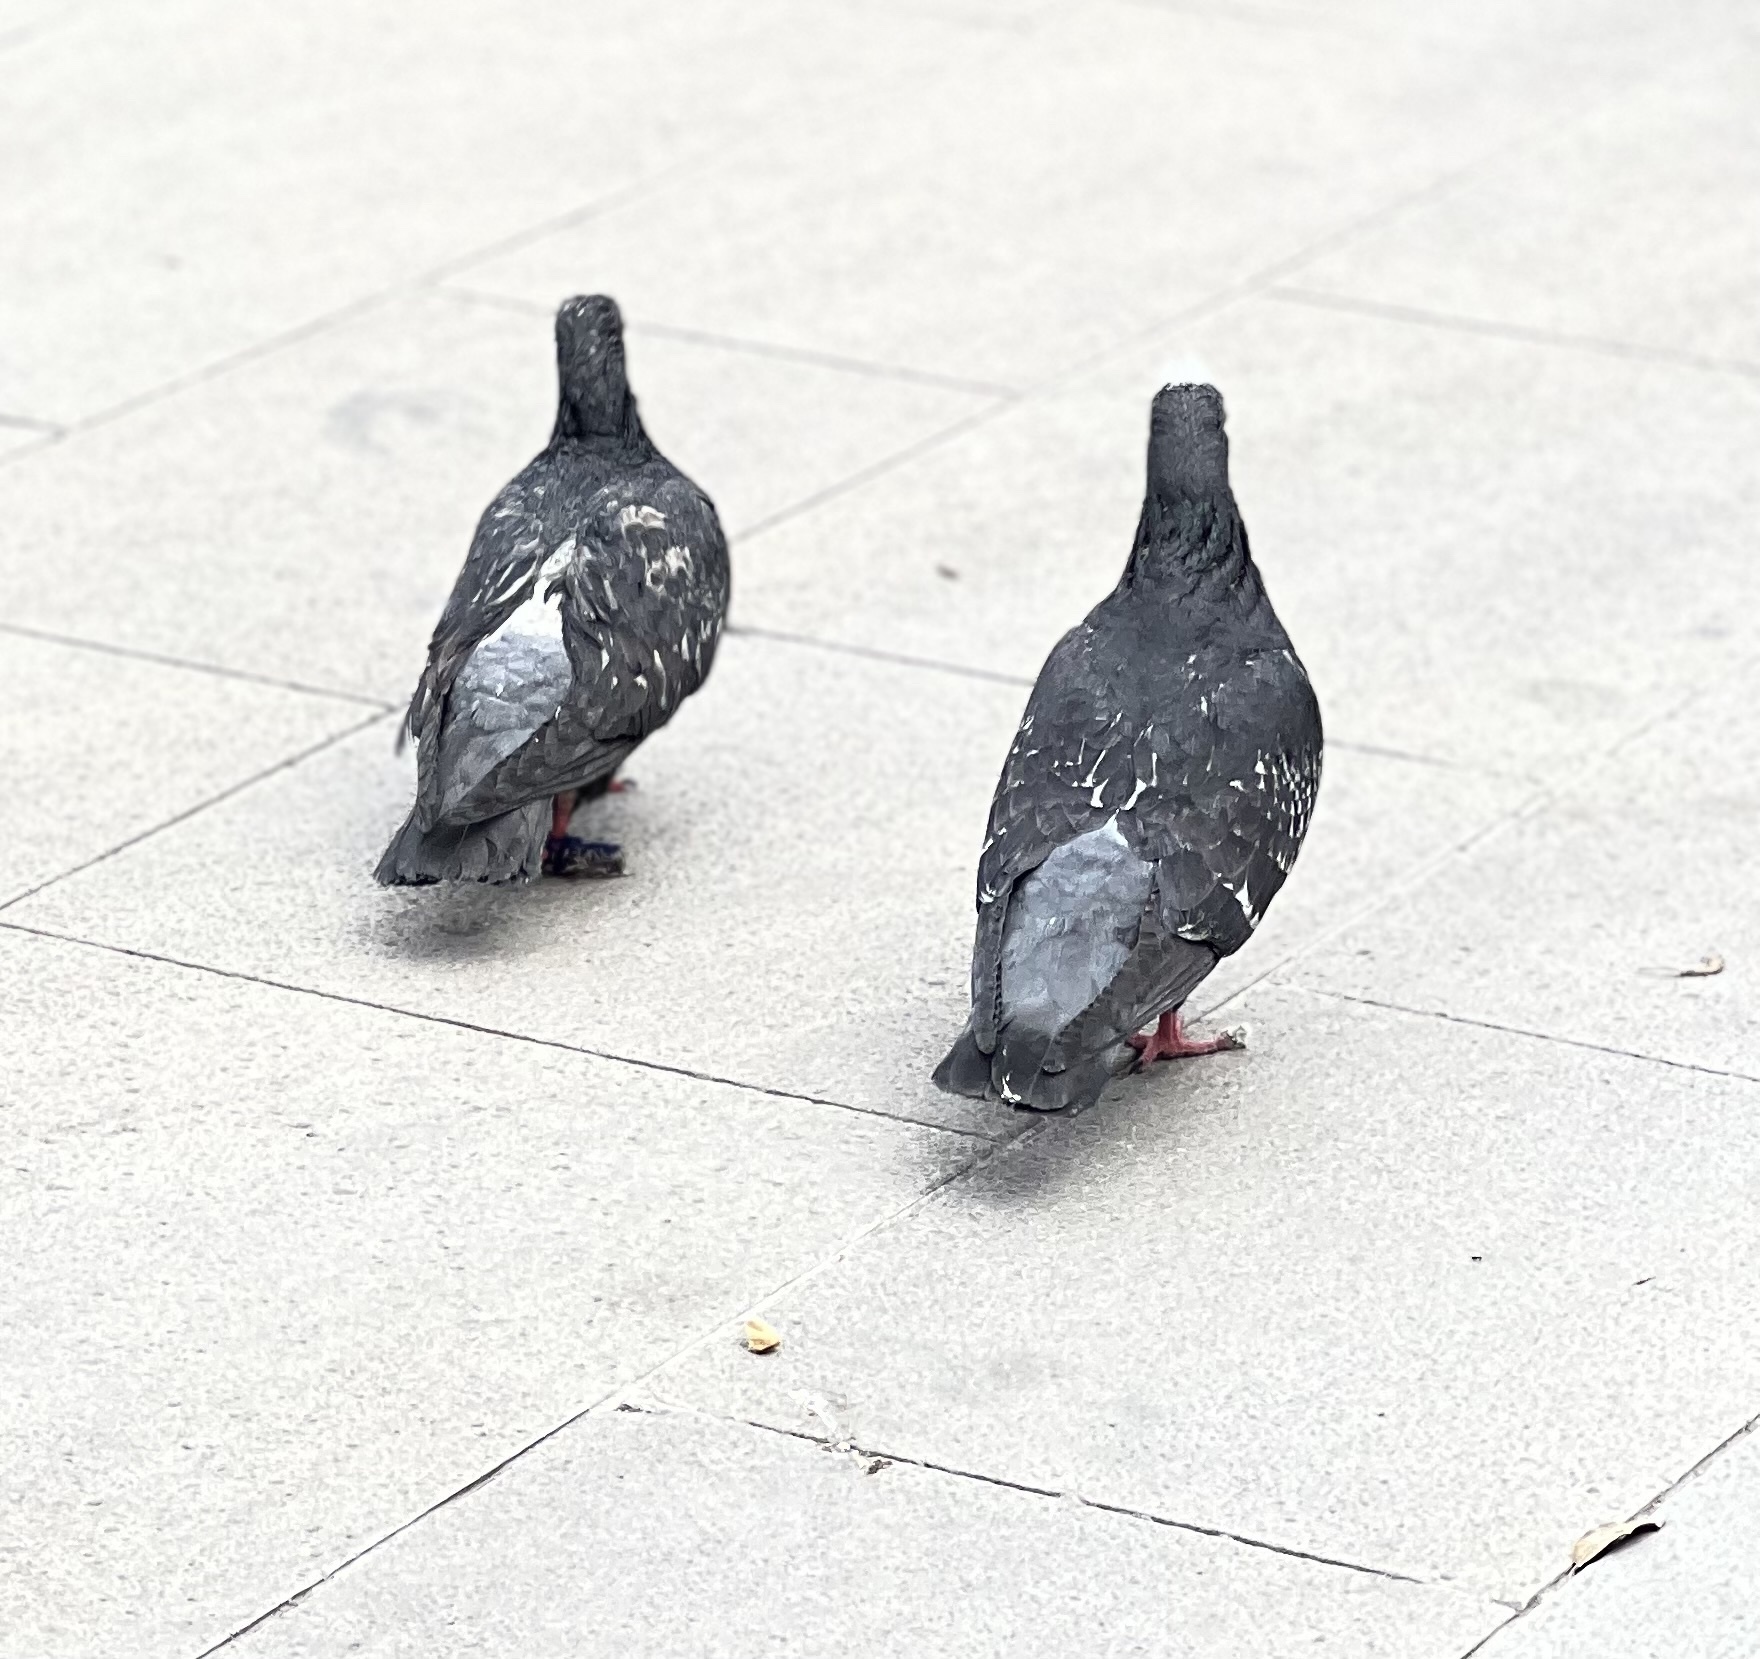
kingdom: Animalia
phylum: Chordata
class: Aves
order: Columbiformes
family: Columbidae
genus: Columba
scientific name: Columba livia
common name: Rock pigeon
